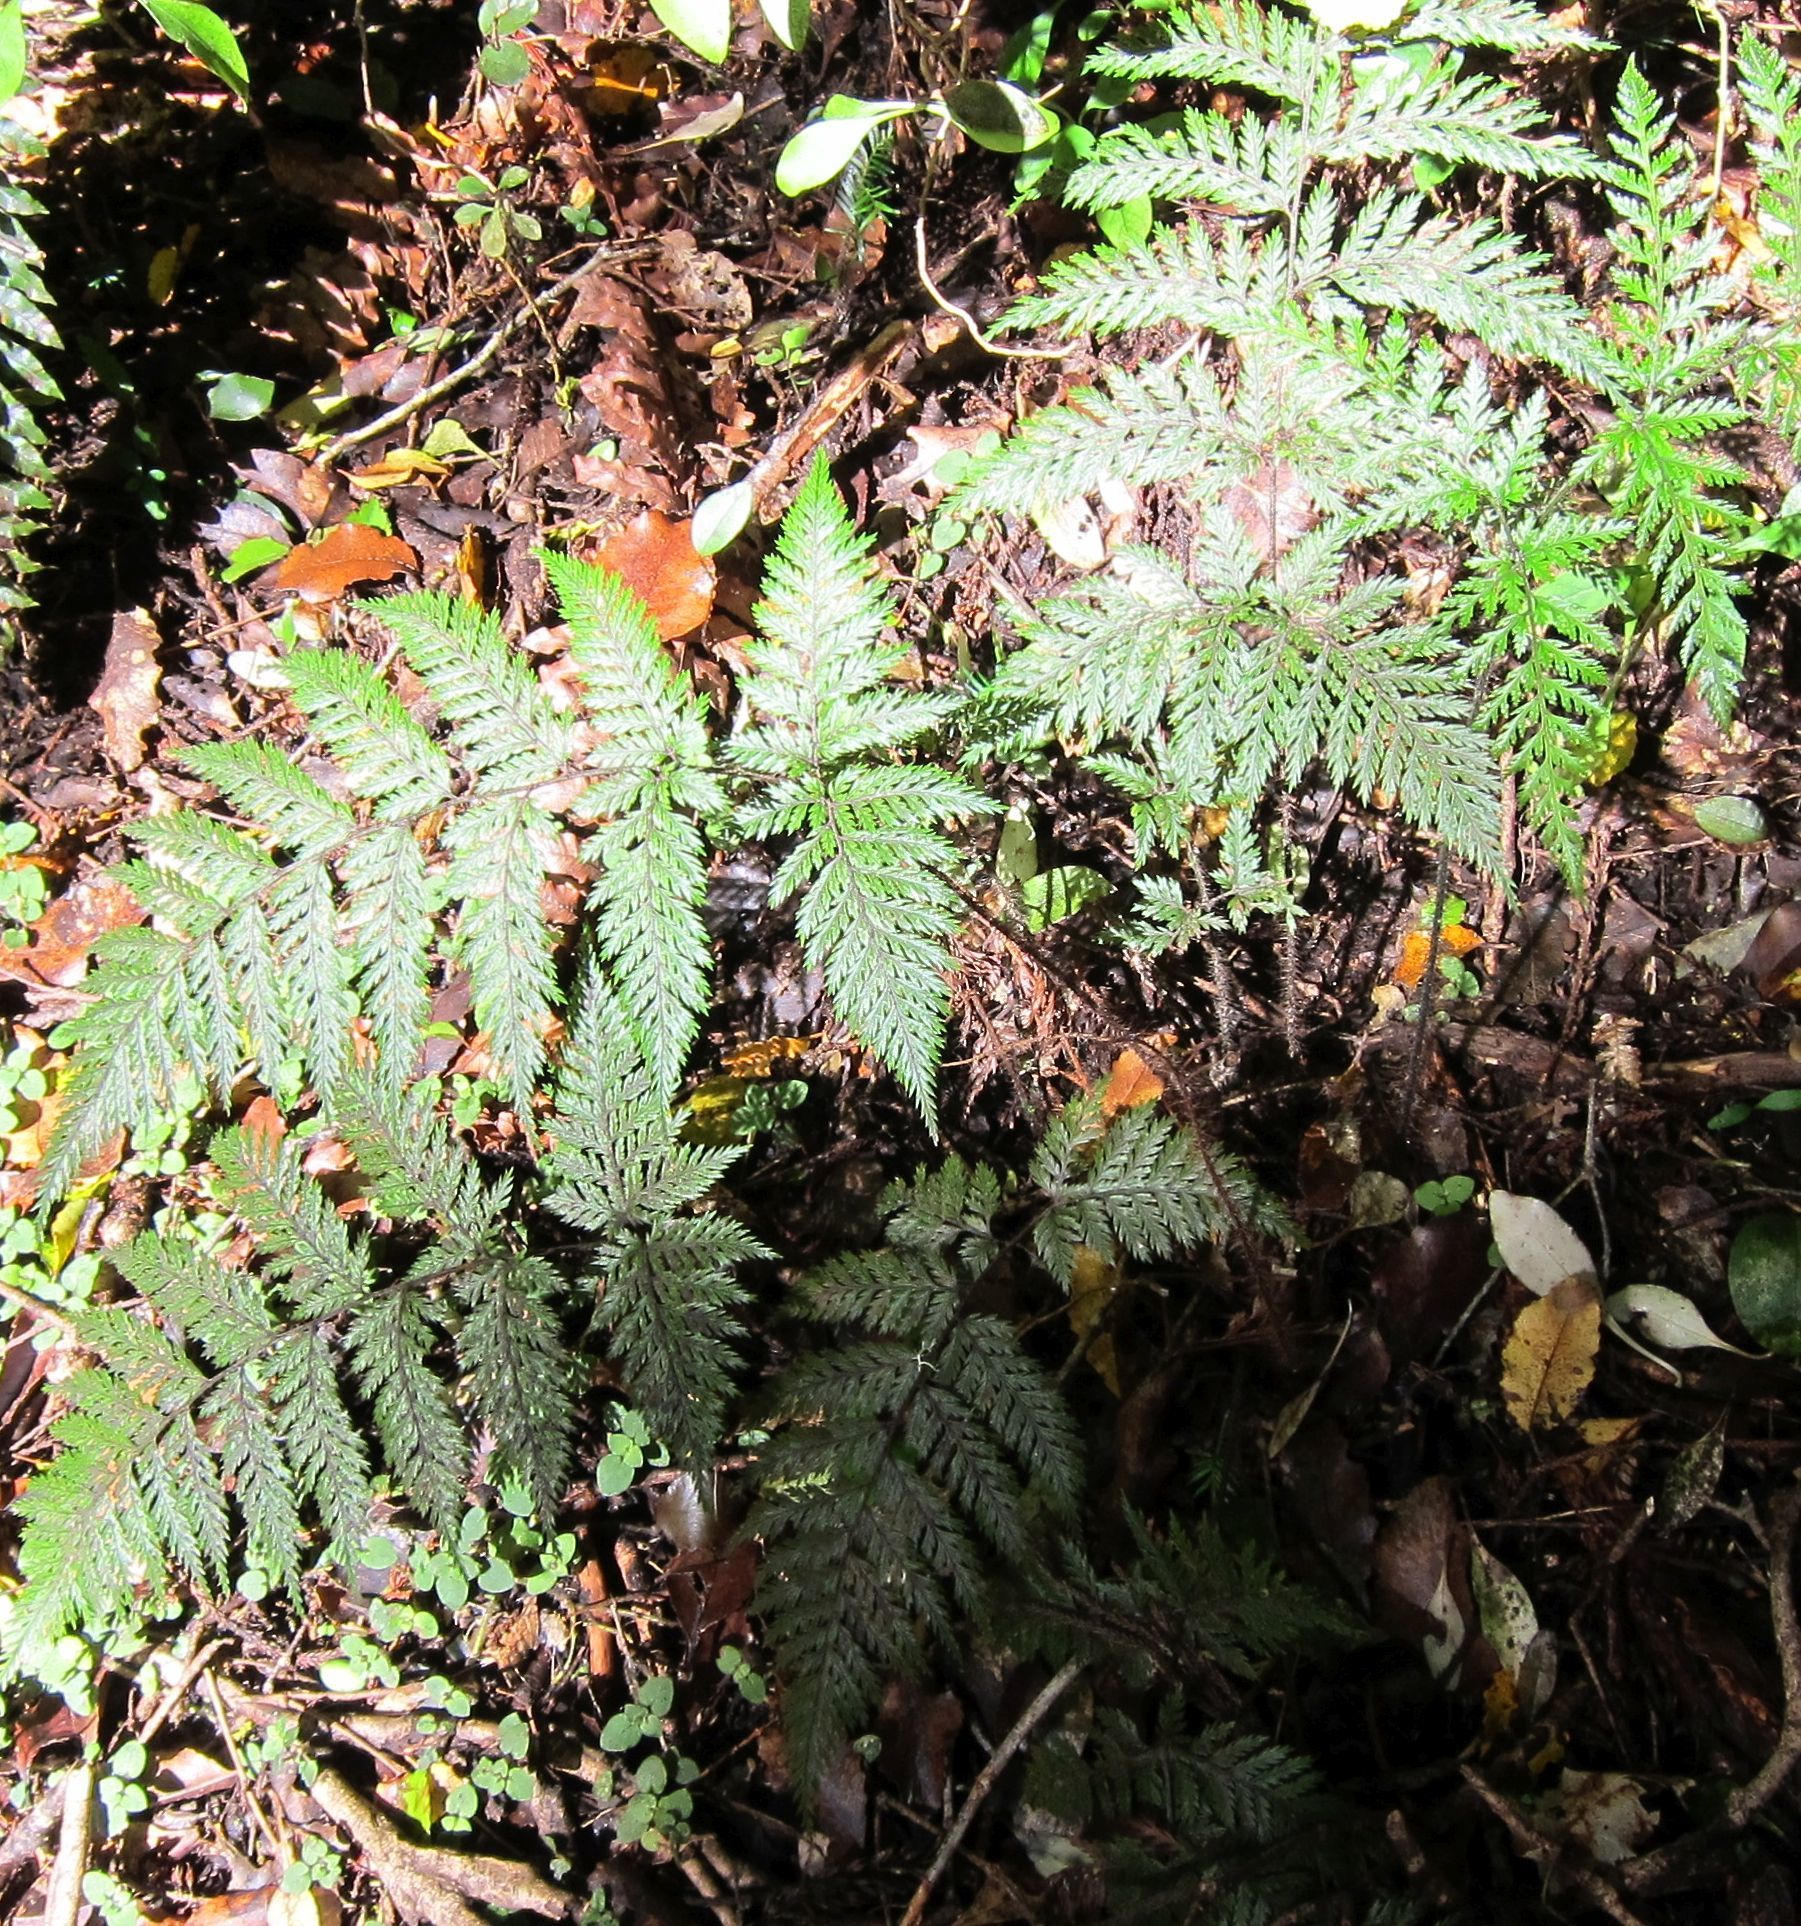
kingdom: Plantae
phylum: Tracheophyta
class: Polypodiopsida
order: Polypodiales
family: Dryopteridaceae
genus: Lastreopsis
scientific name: Lastreopsis hispida
